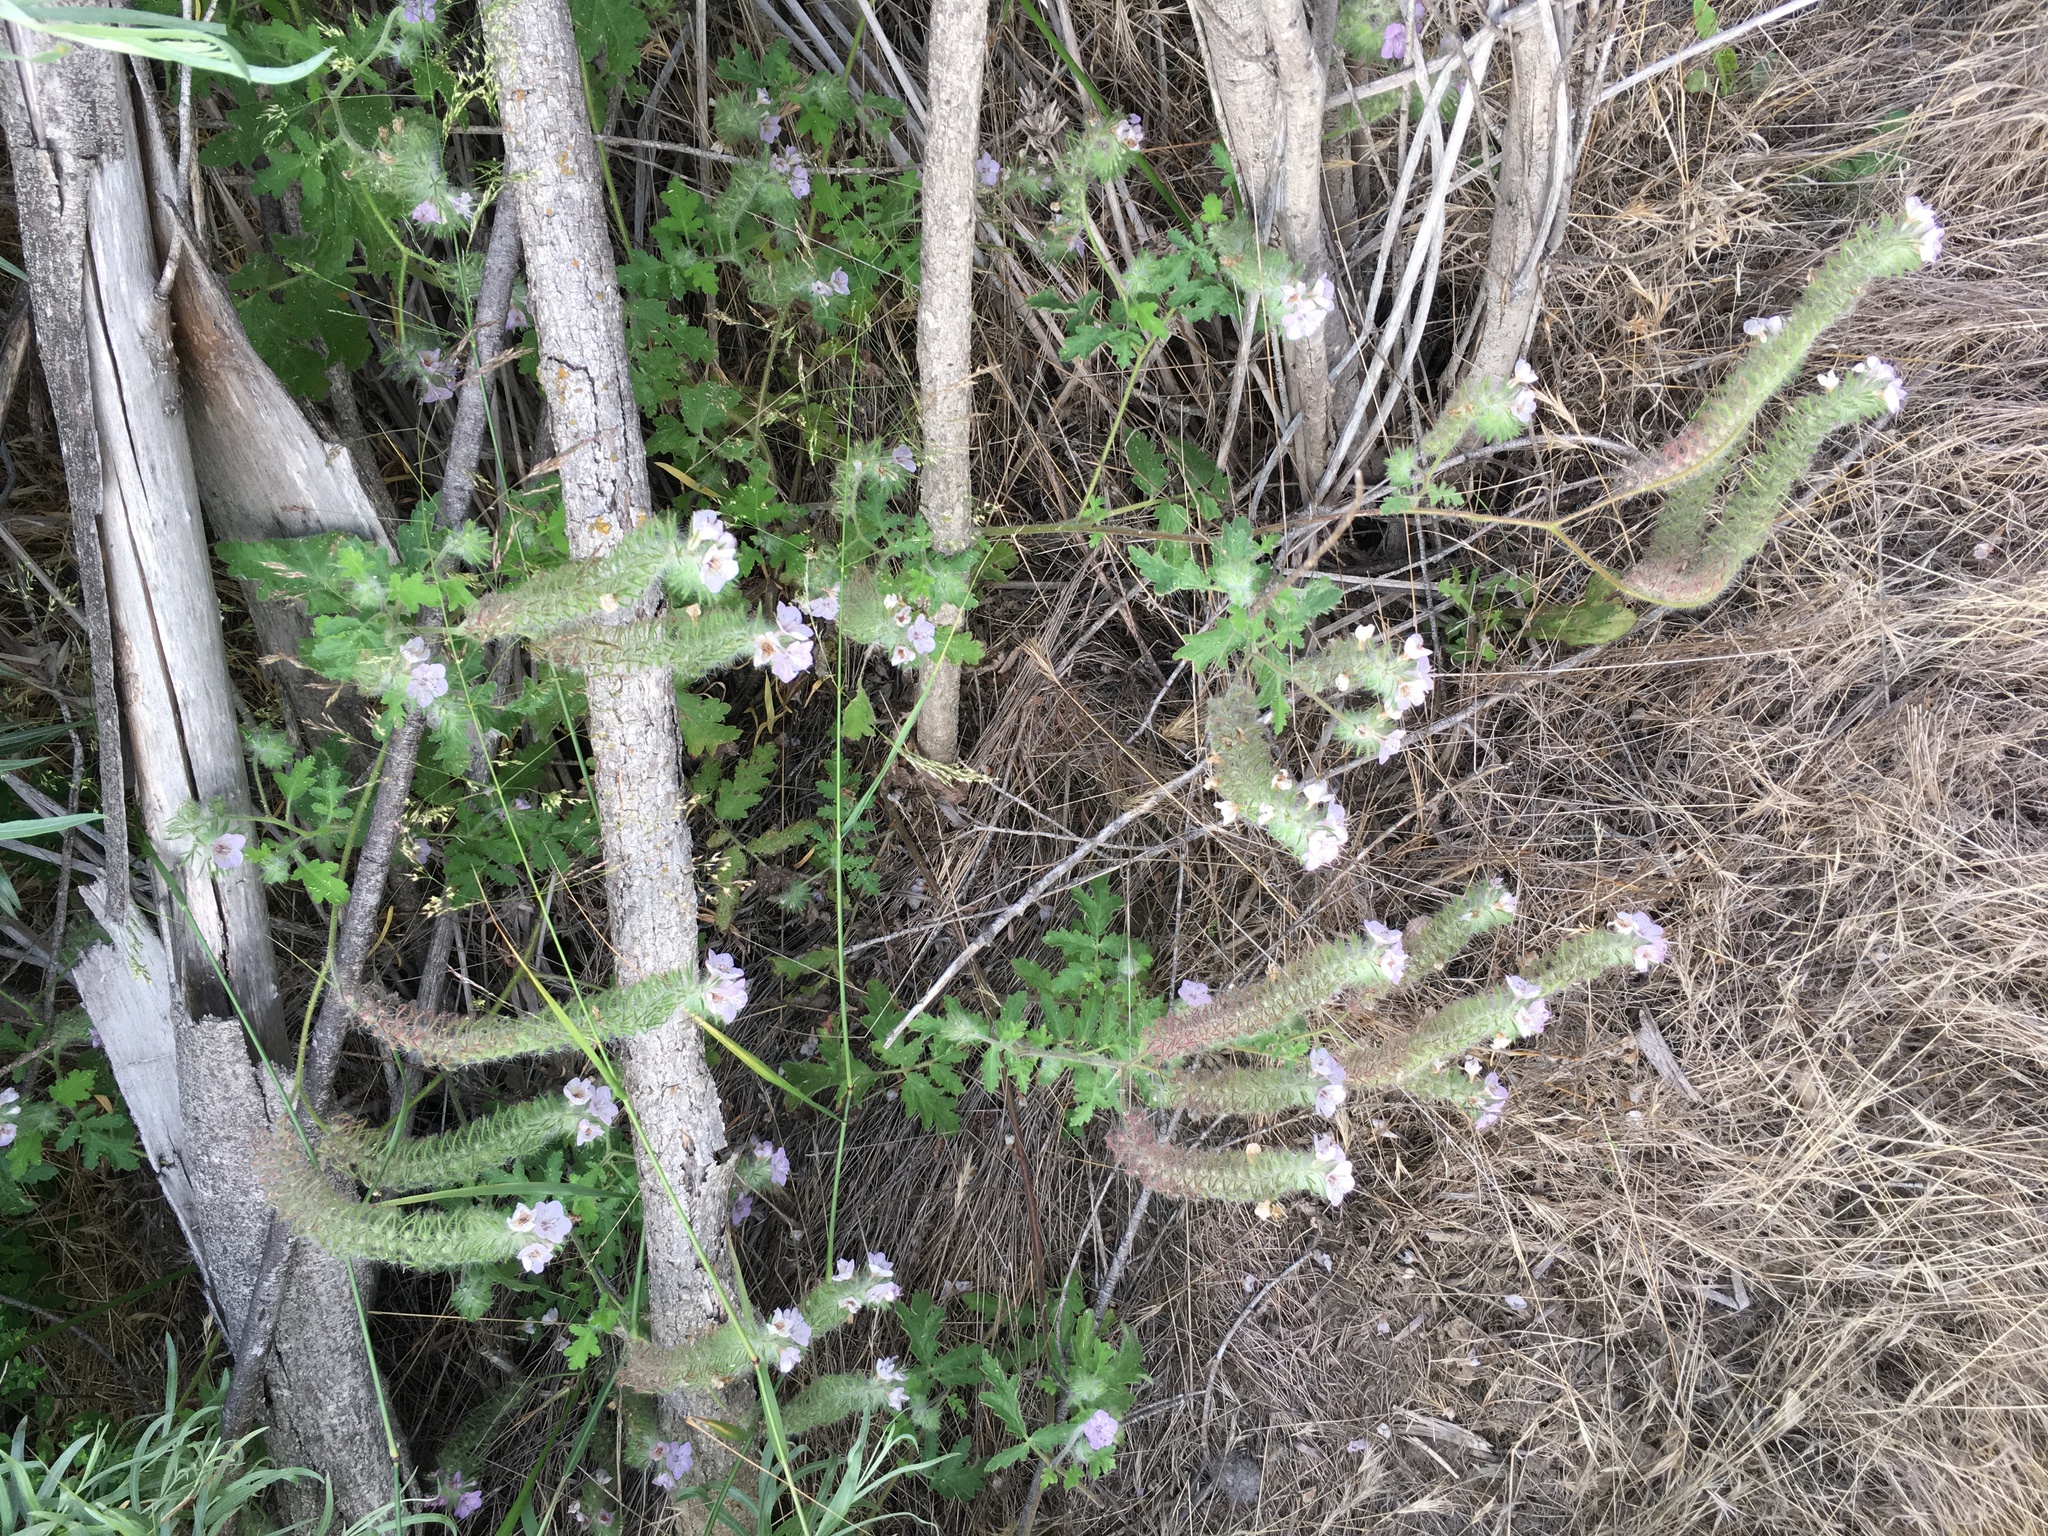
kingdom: Plantae
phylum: Tracheophyta
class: Magnoliopsida
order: Boraginales
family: Hydrophyllaceae
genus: Phacelia
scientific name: Phacelia cicutaria
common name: Caterpillar phacelia
